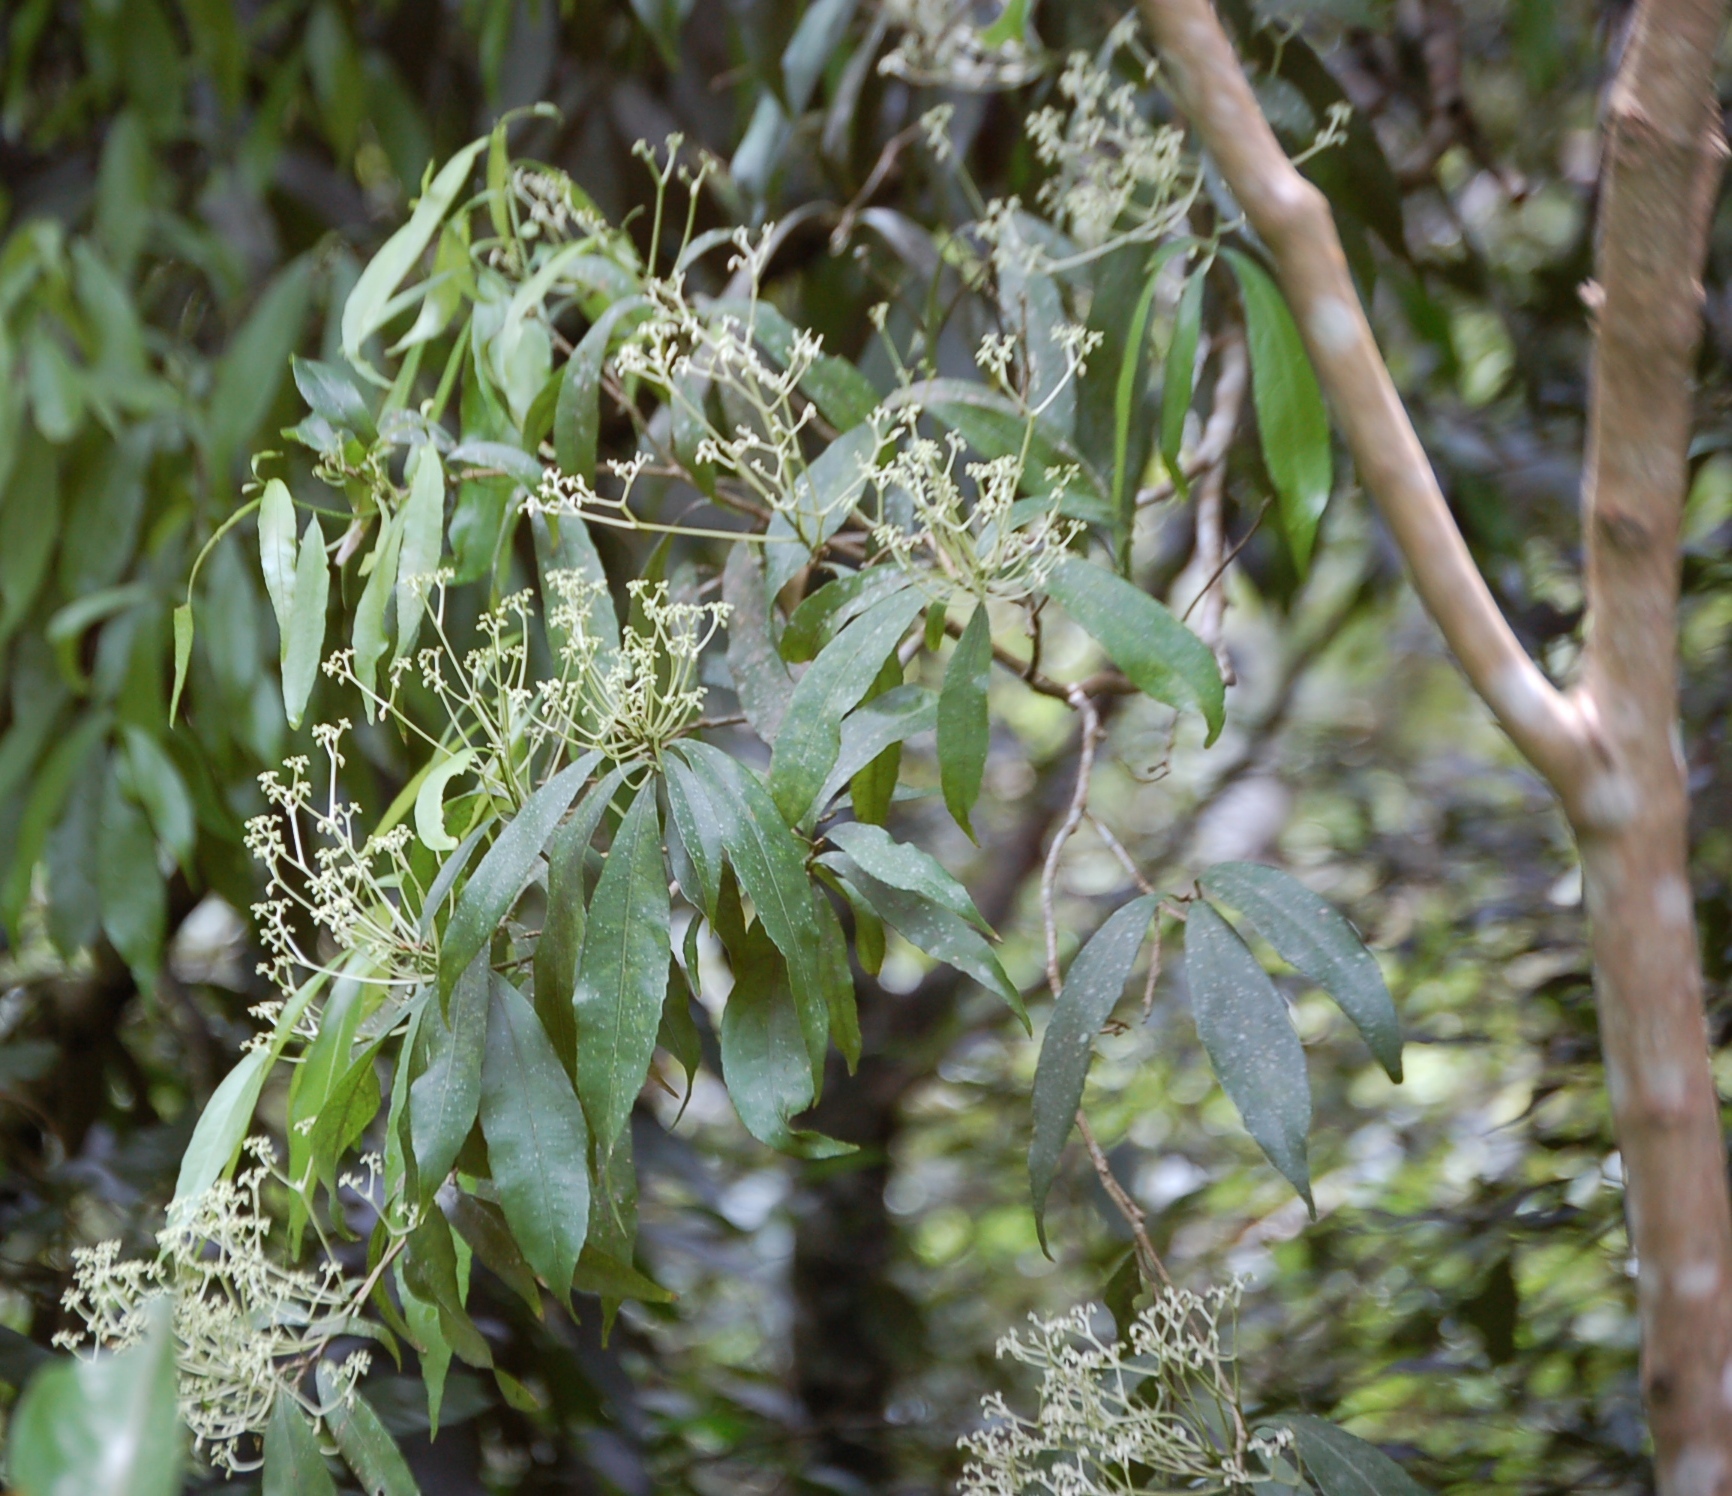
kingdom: Plantae
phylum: Tracheophyta
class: Magnoliopsida
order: Malpighiales
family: Violaceae
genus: Orthion
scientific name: Orthion malpighiifolium
